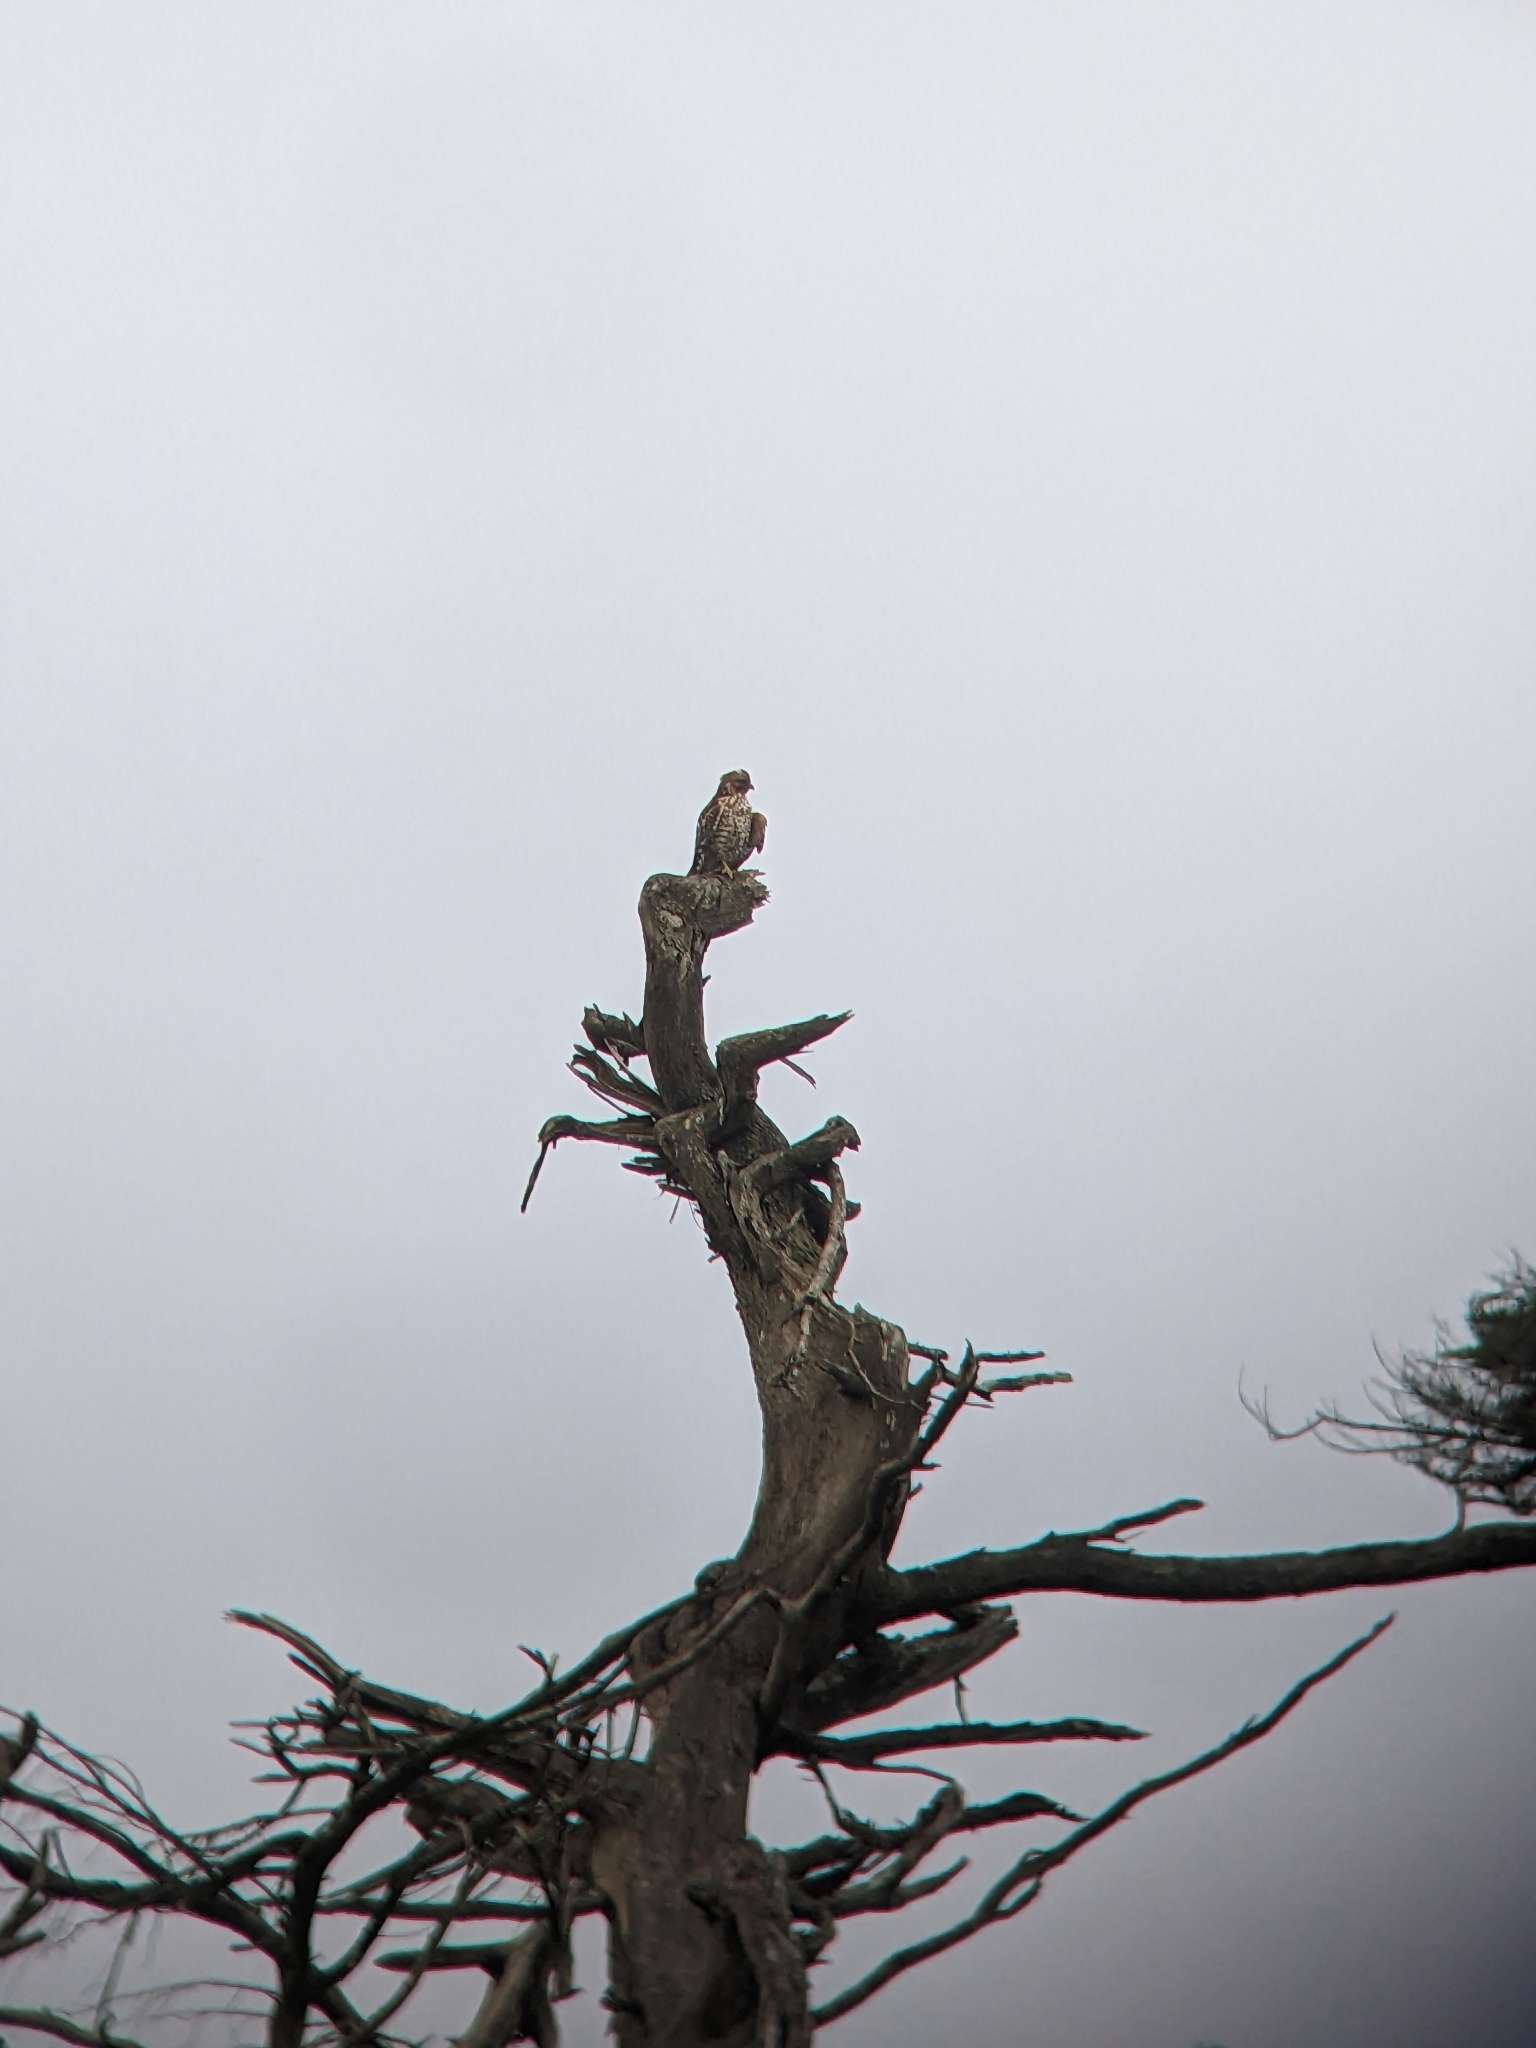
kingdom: Animalia
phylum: Chordata
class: Aves
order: Accipitriformes
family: Accipitridae
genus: Buteo
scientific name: Buteo lineatus
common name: Red-shouldered hawk
